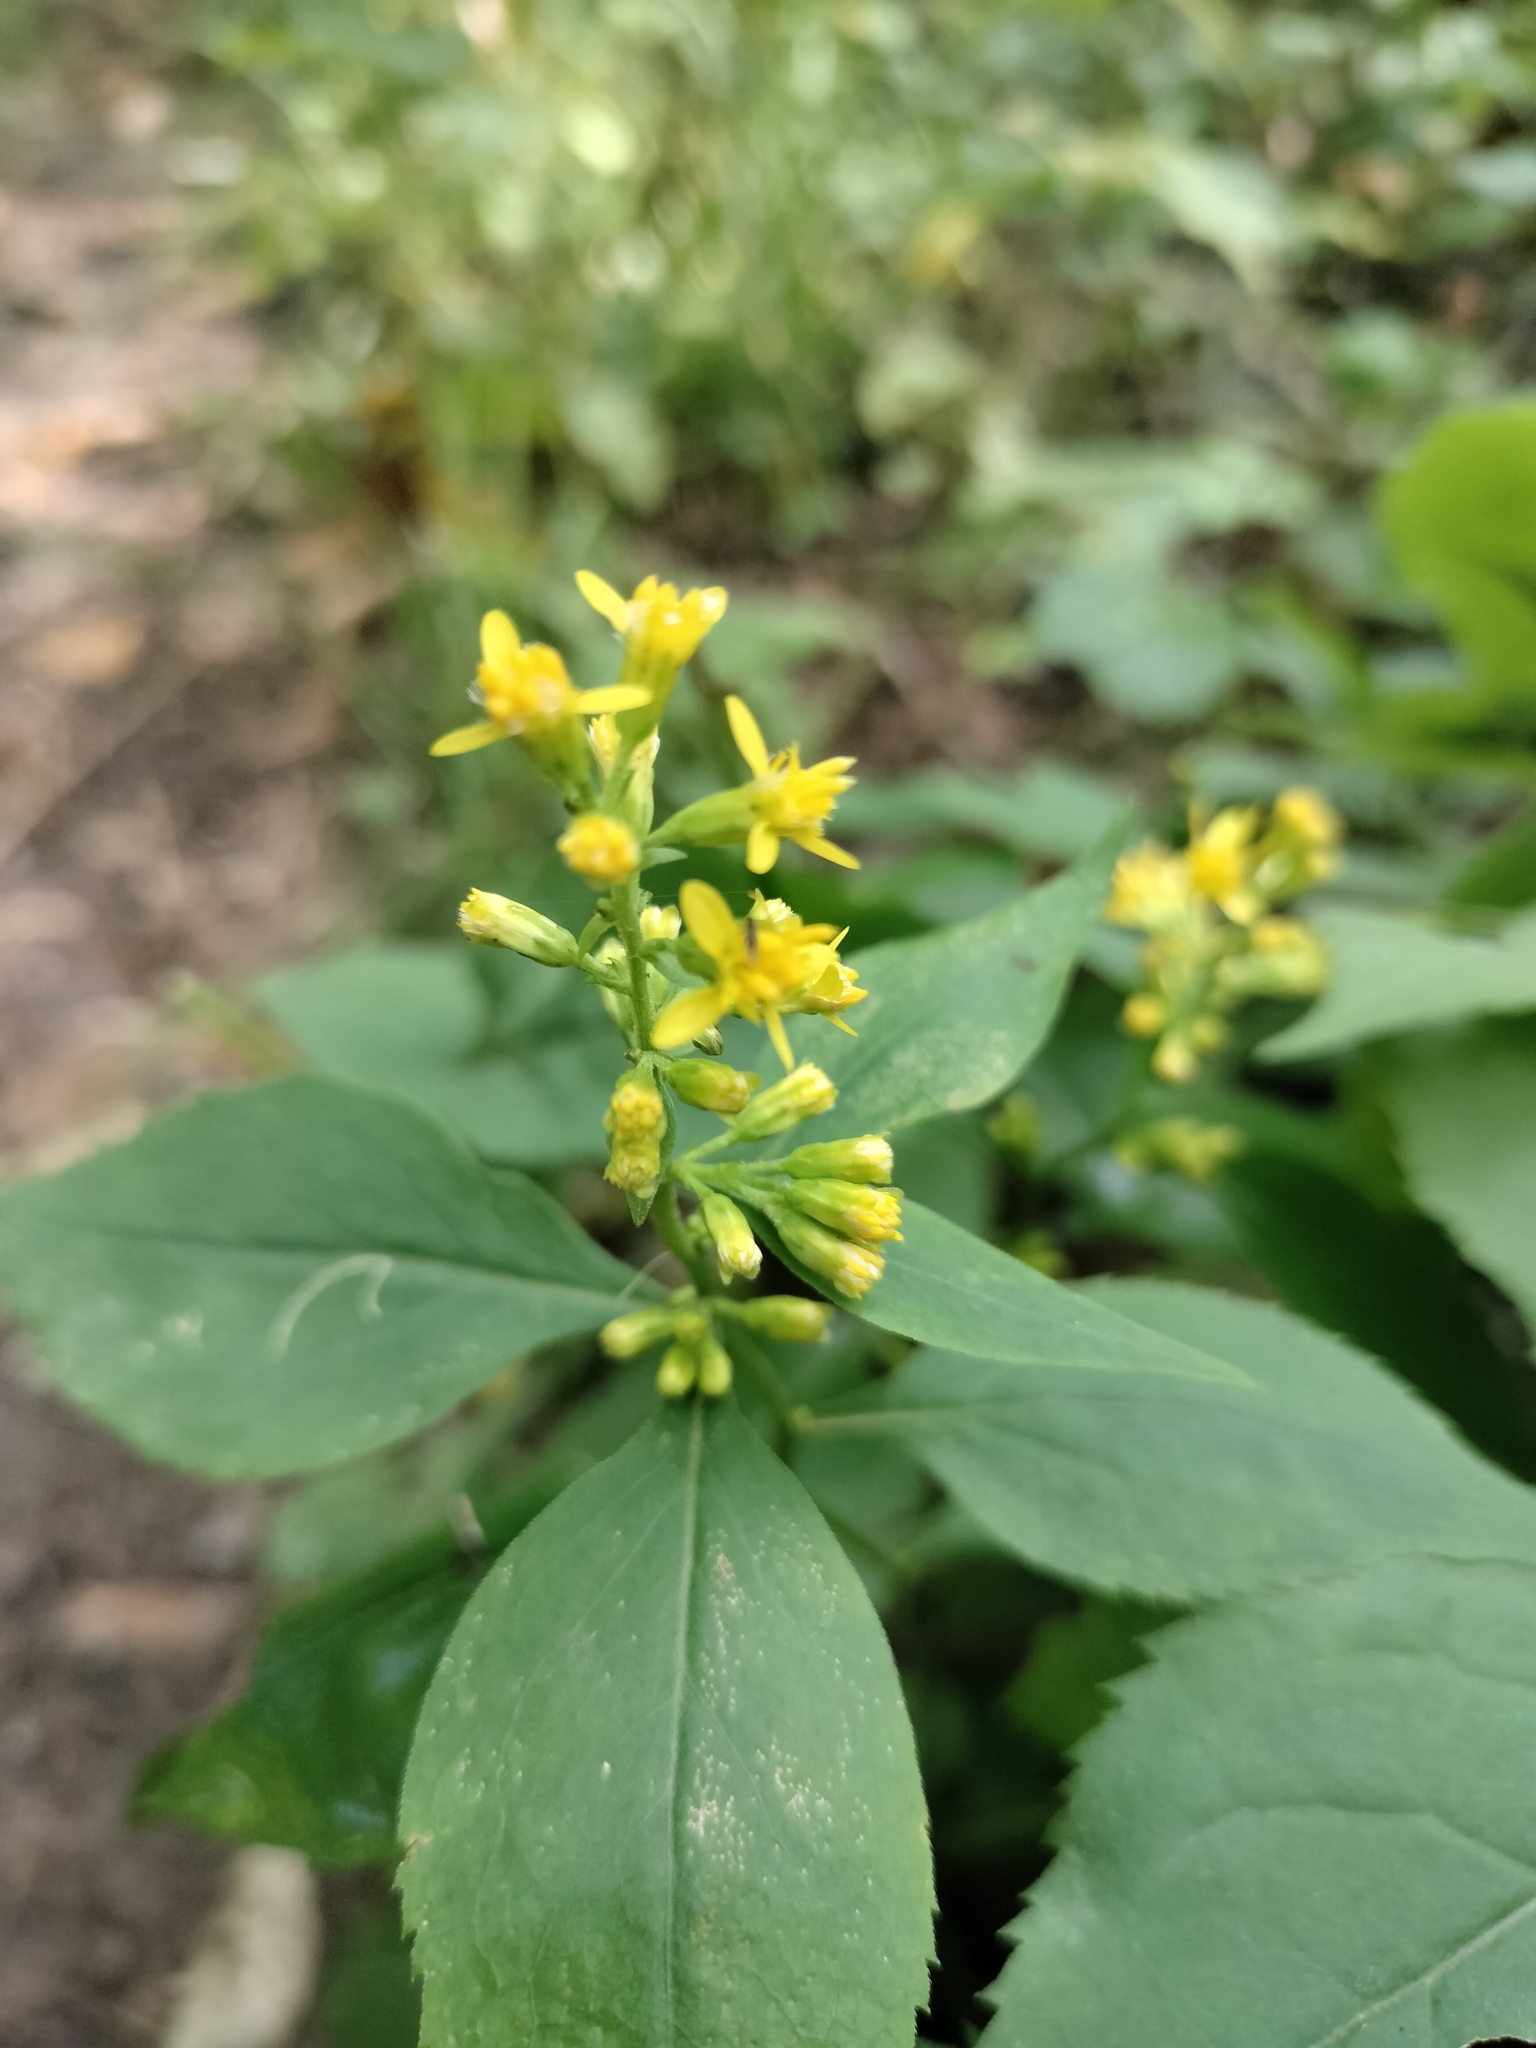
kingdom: Plantae
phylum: Tracheophyta
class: Magnoliopsida
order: Asterales
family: Asteraceae
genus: Solidago
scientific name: Solidago flexicaulis
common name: Zig-zag goldenrod
